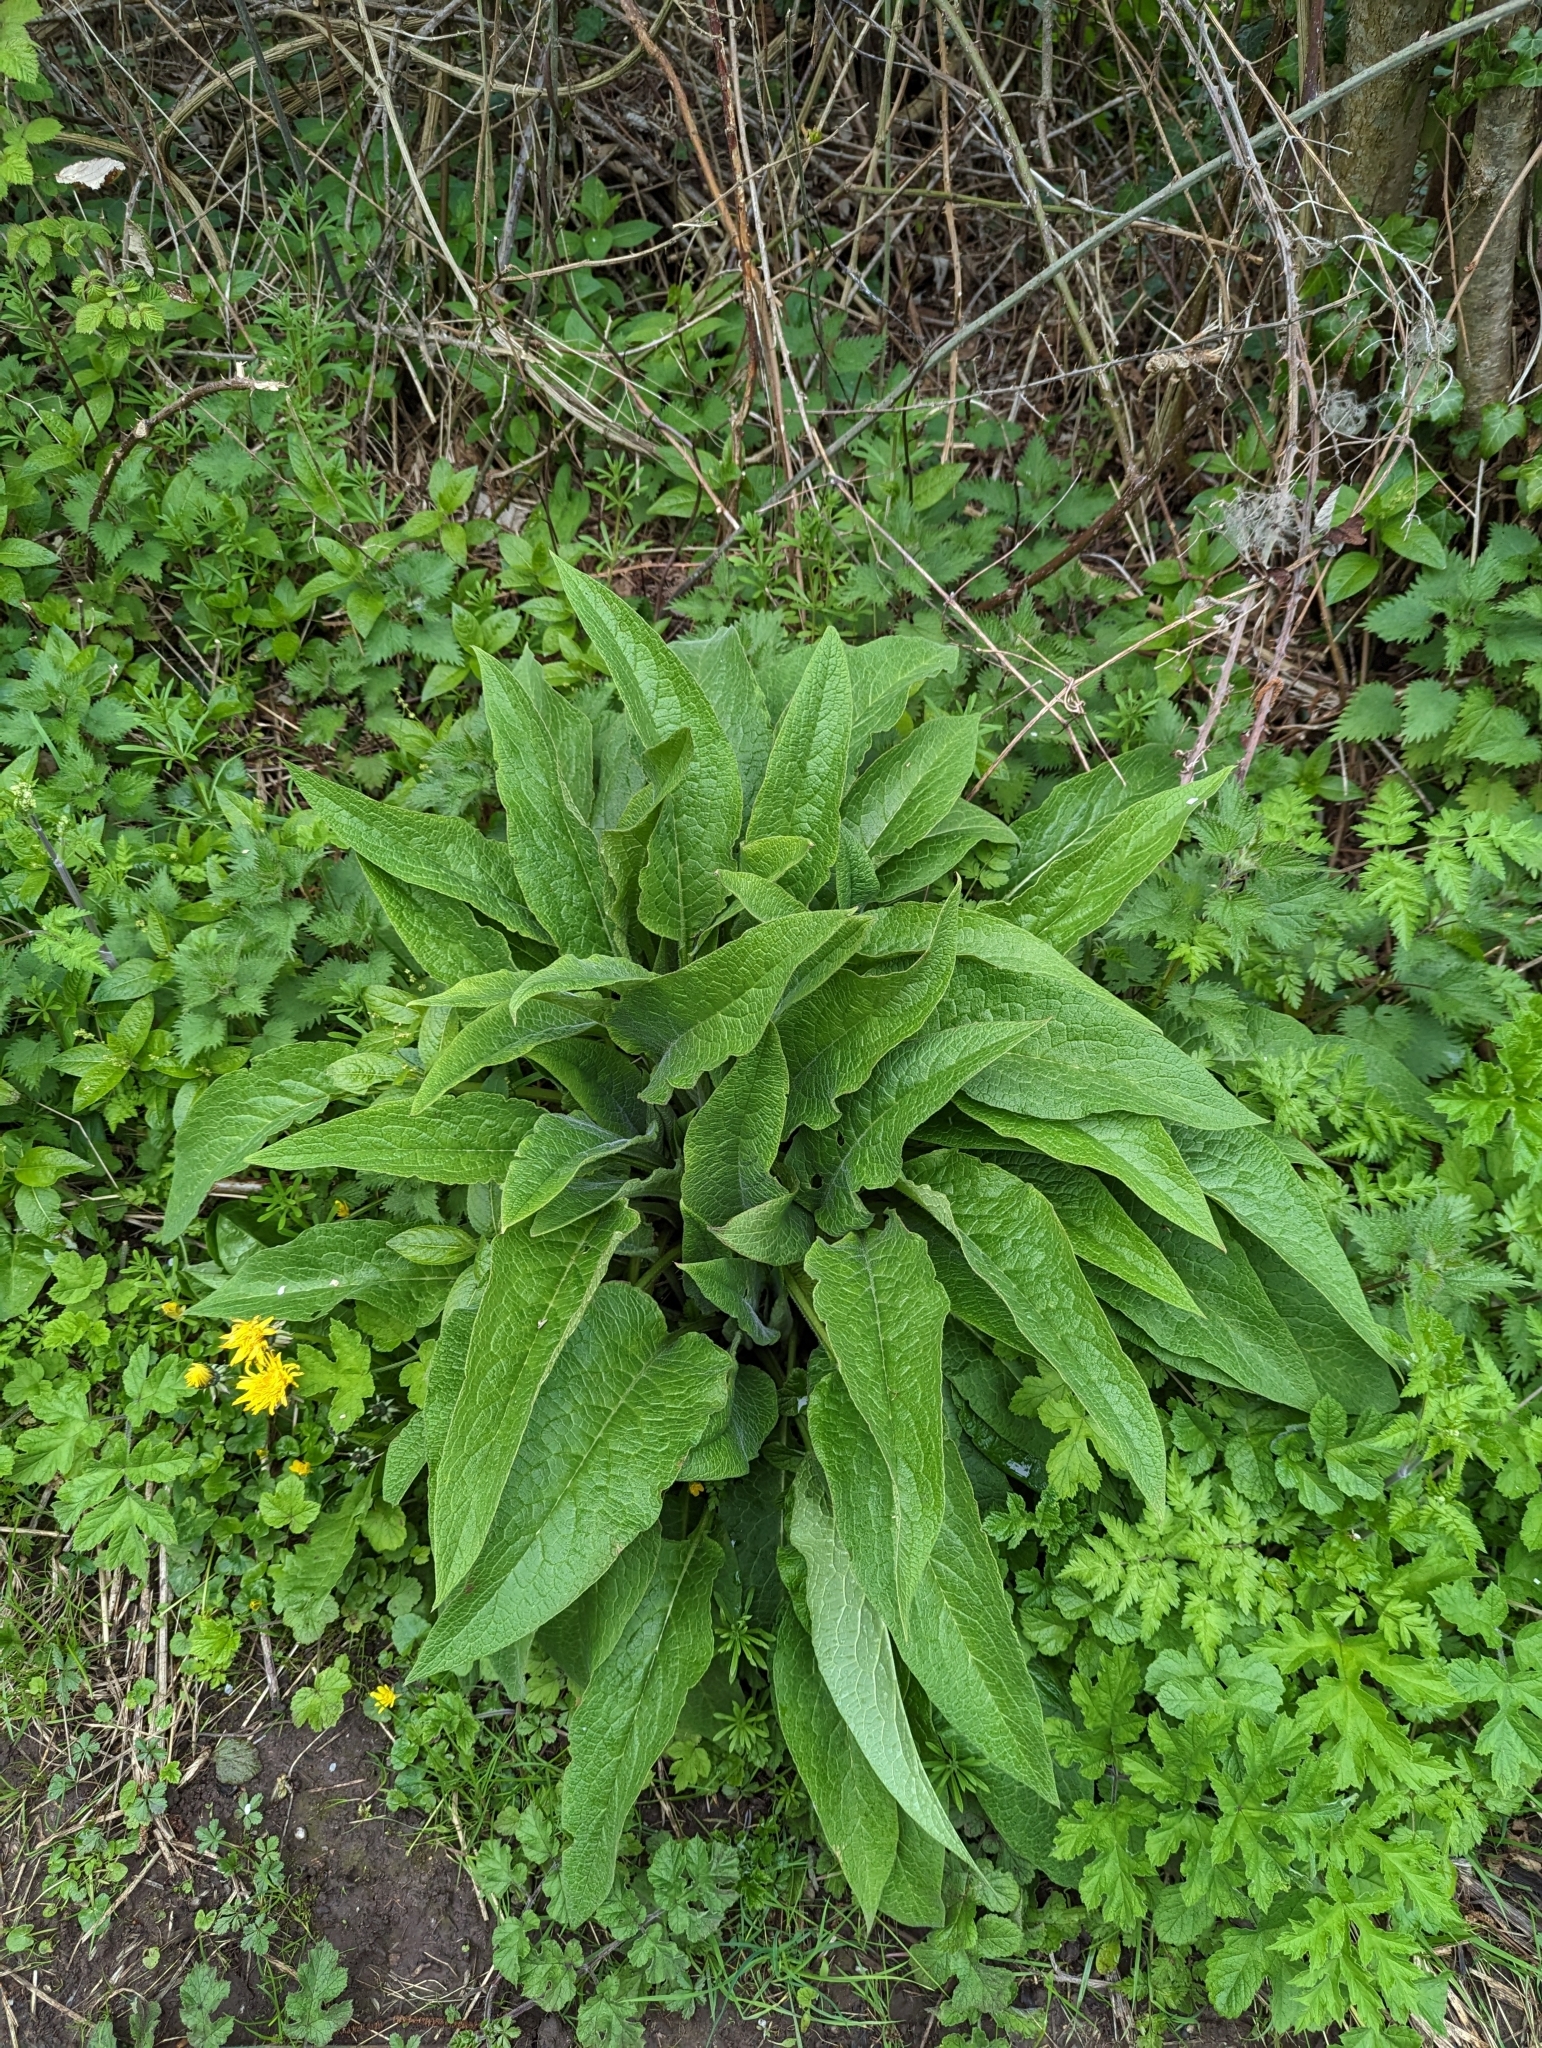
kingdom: Plantae
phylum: Tracheophyta
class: Magnoliopsida
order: Boraginales
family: Boraginaceae
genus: Symphytum
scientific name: Symphytum officinale
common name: Common comfrey
